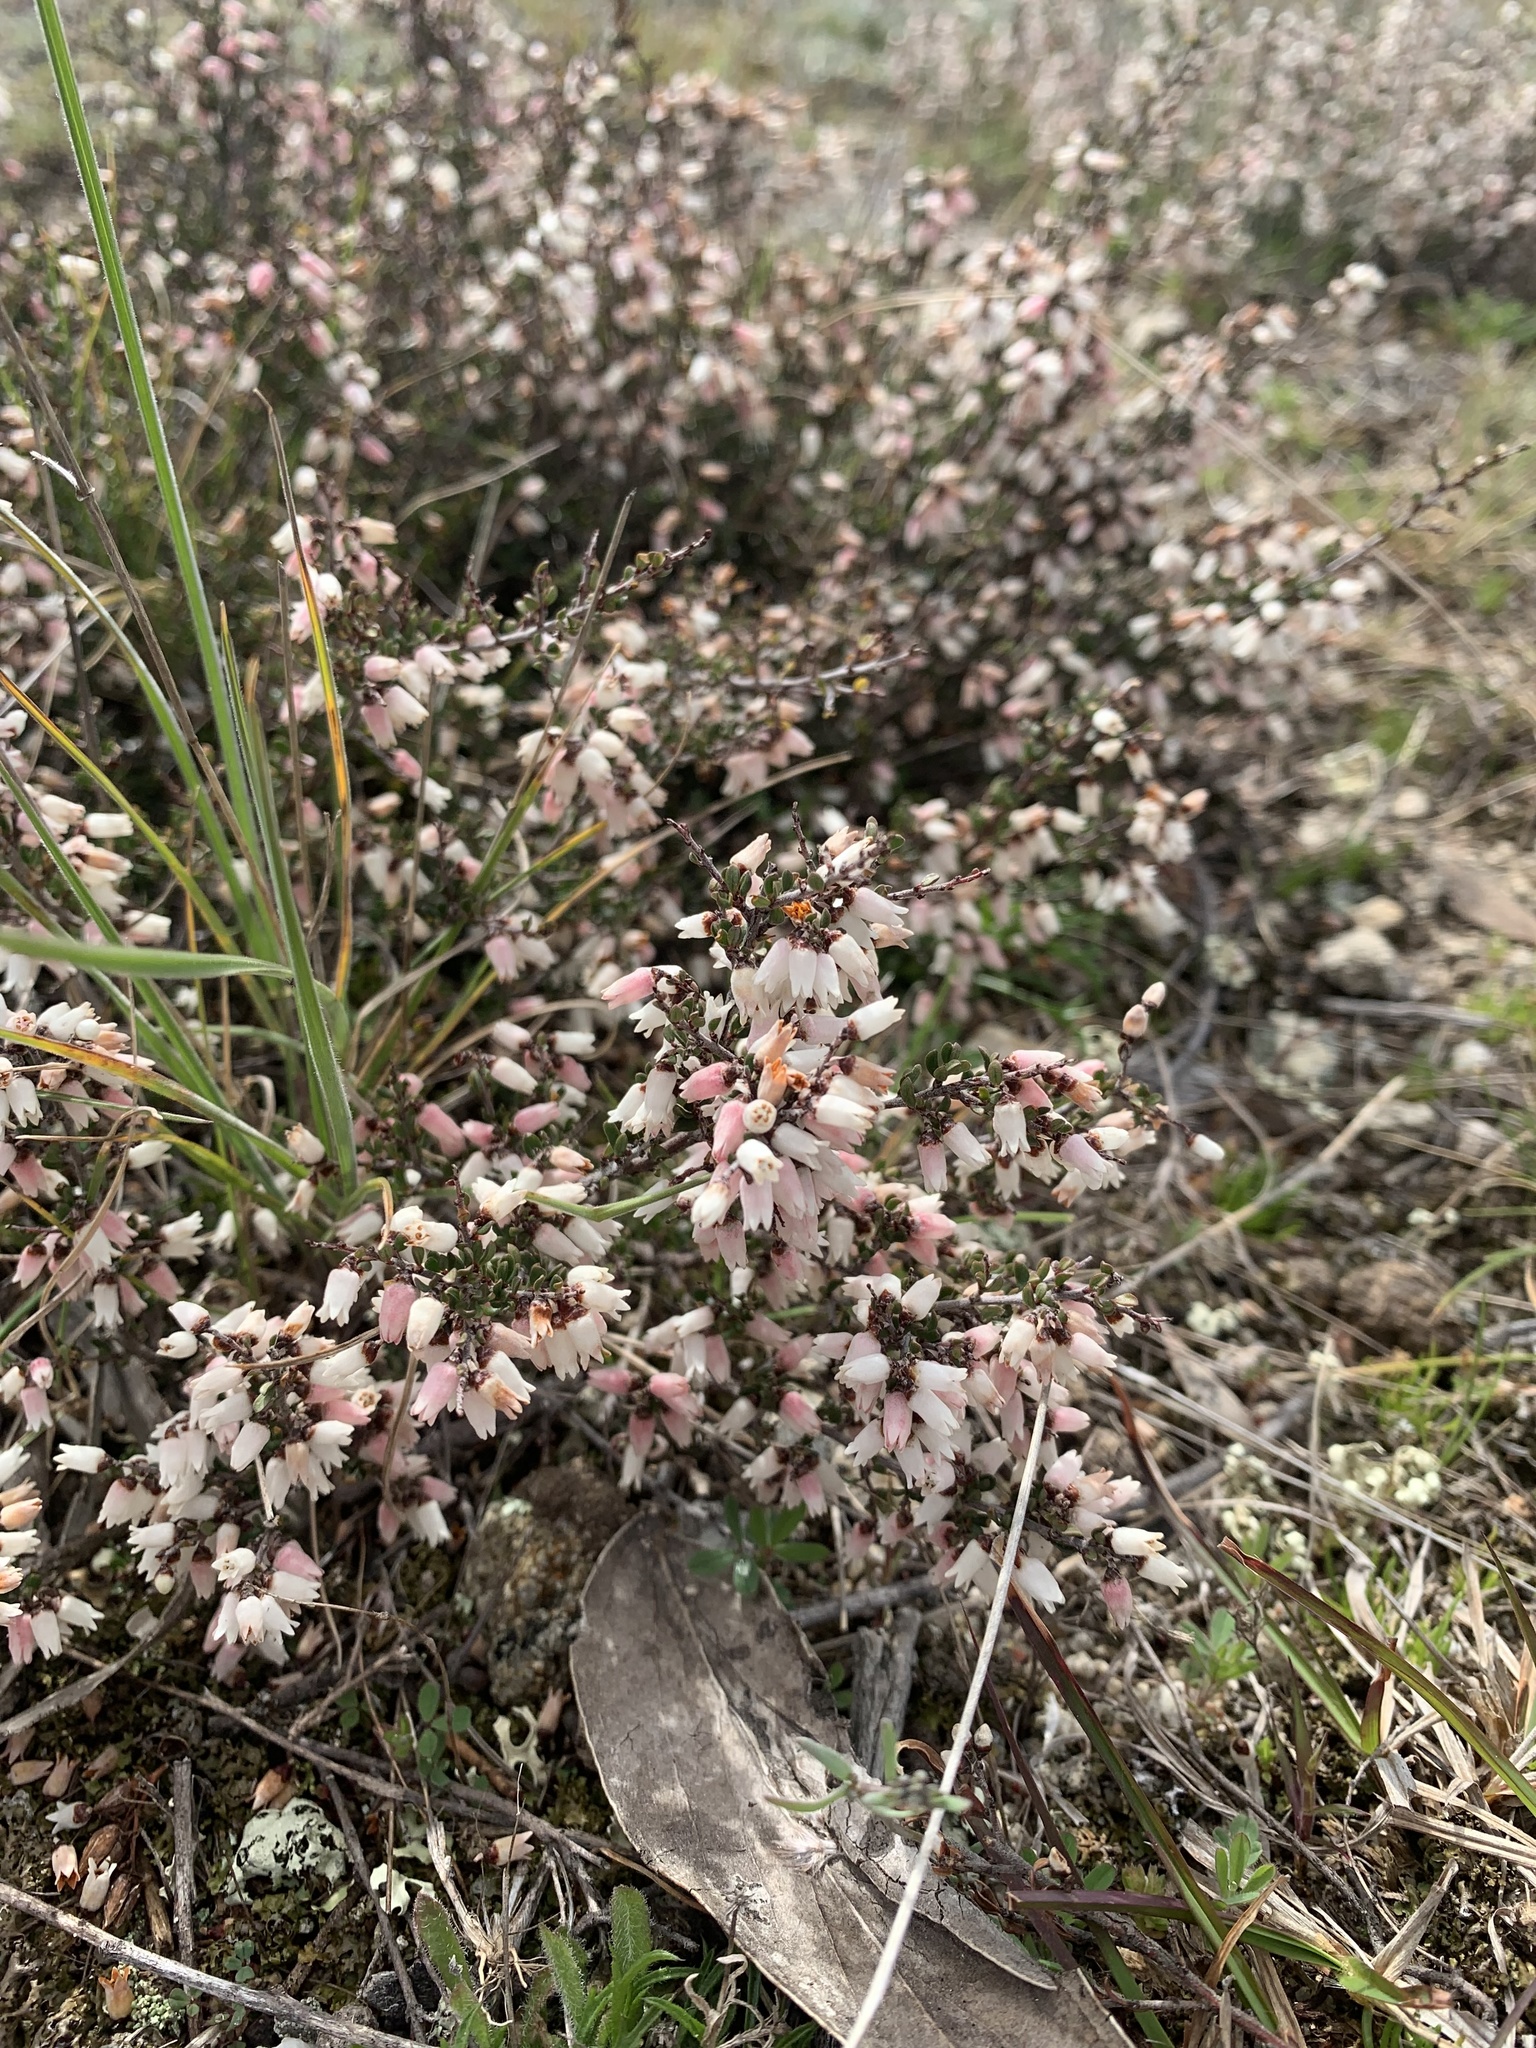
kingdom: Plantae
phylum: Tracheophyta
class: Magnoliopsida
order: Rosales
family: Rhamnaceae
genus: Cryptandra
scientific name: Cryptandra amara
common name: Bitter cryptandra
